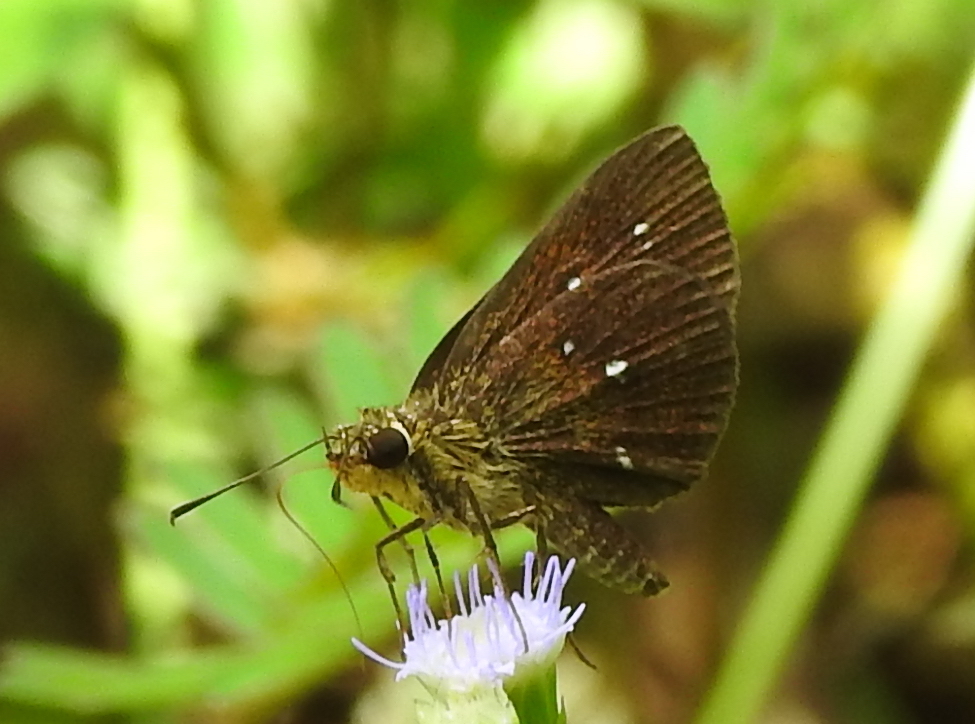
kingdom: Animalia
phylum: Arthropoda
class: Insecta
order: Lepidoptera
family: Hesperiidae
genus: Iambrix
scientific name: Iambrix salsala
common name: Chestnut bob
